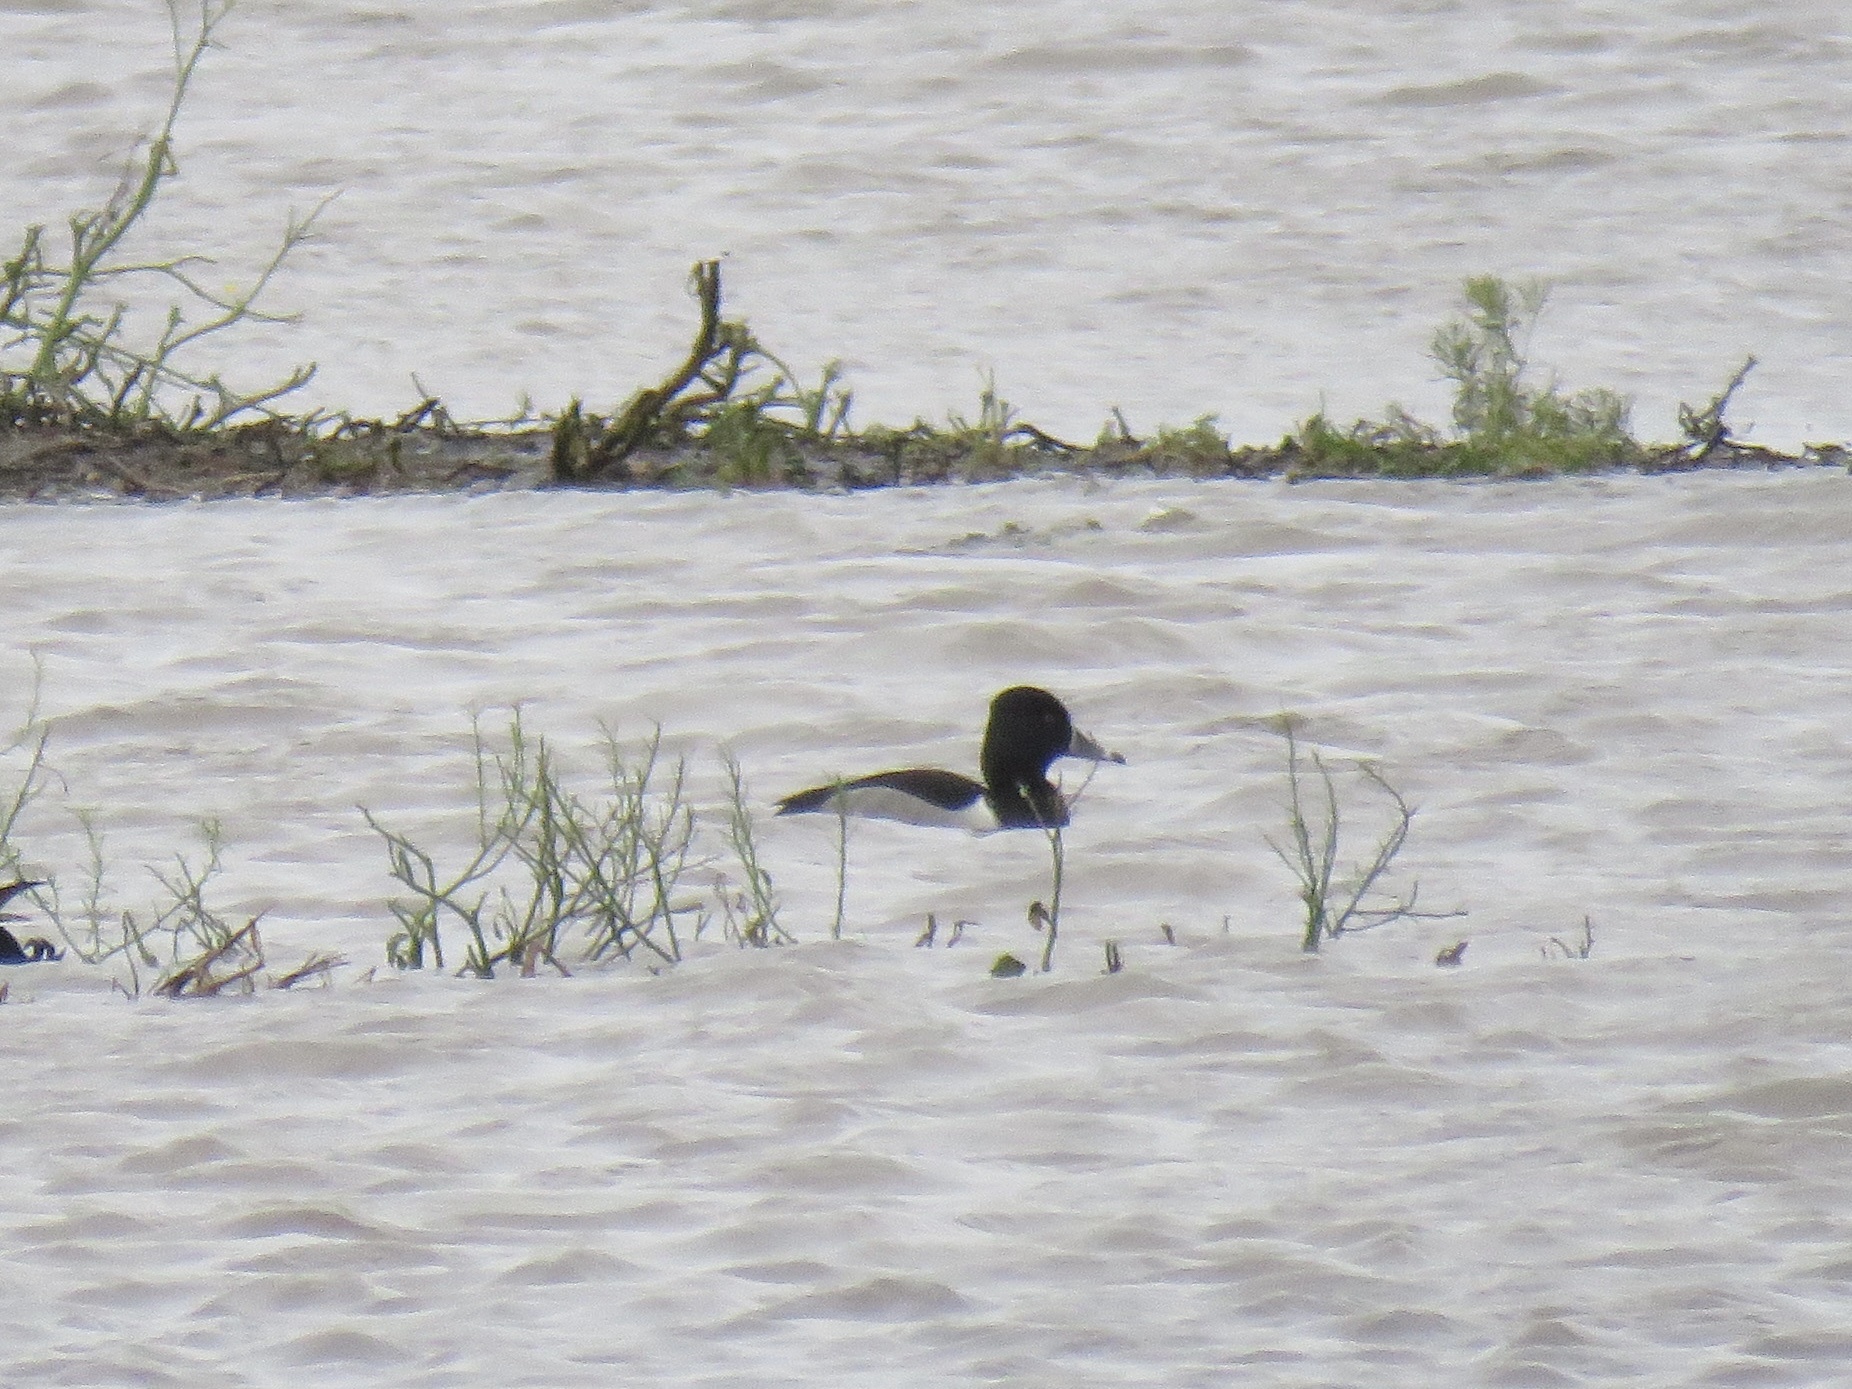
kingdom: Animalia
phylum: Chordata
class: Aves
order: Anseriformes
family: Anatidae
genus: Aythya
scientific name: Aythya collaris
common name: Ring-necked duck
